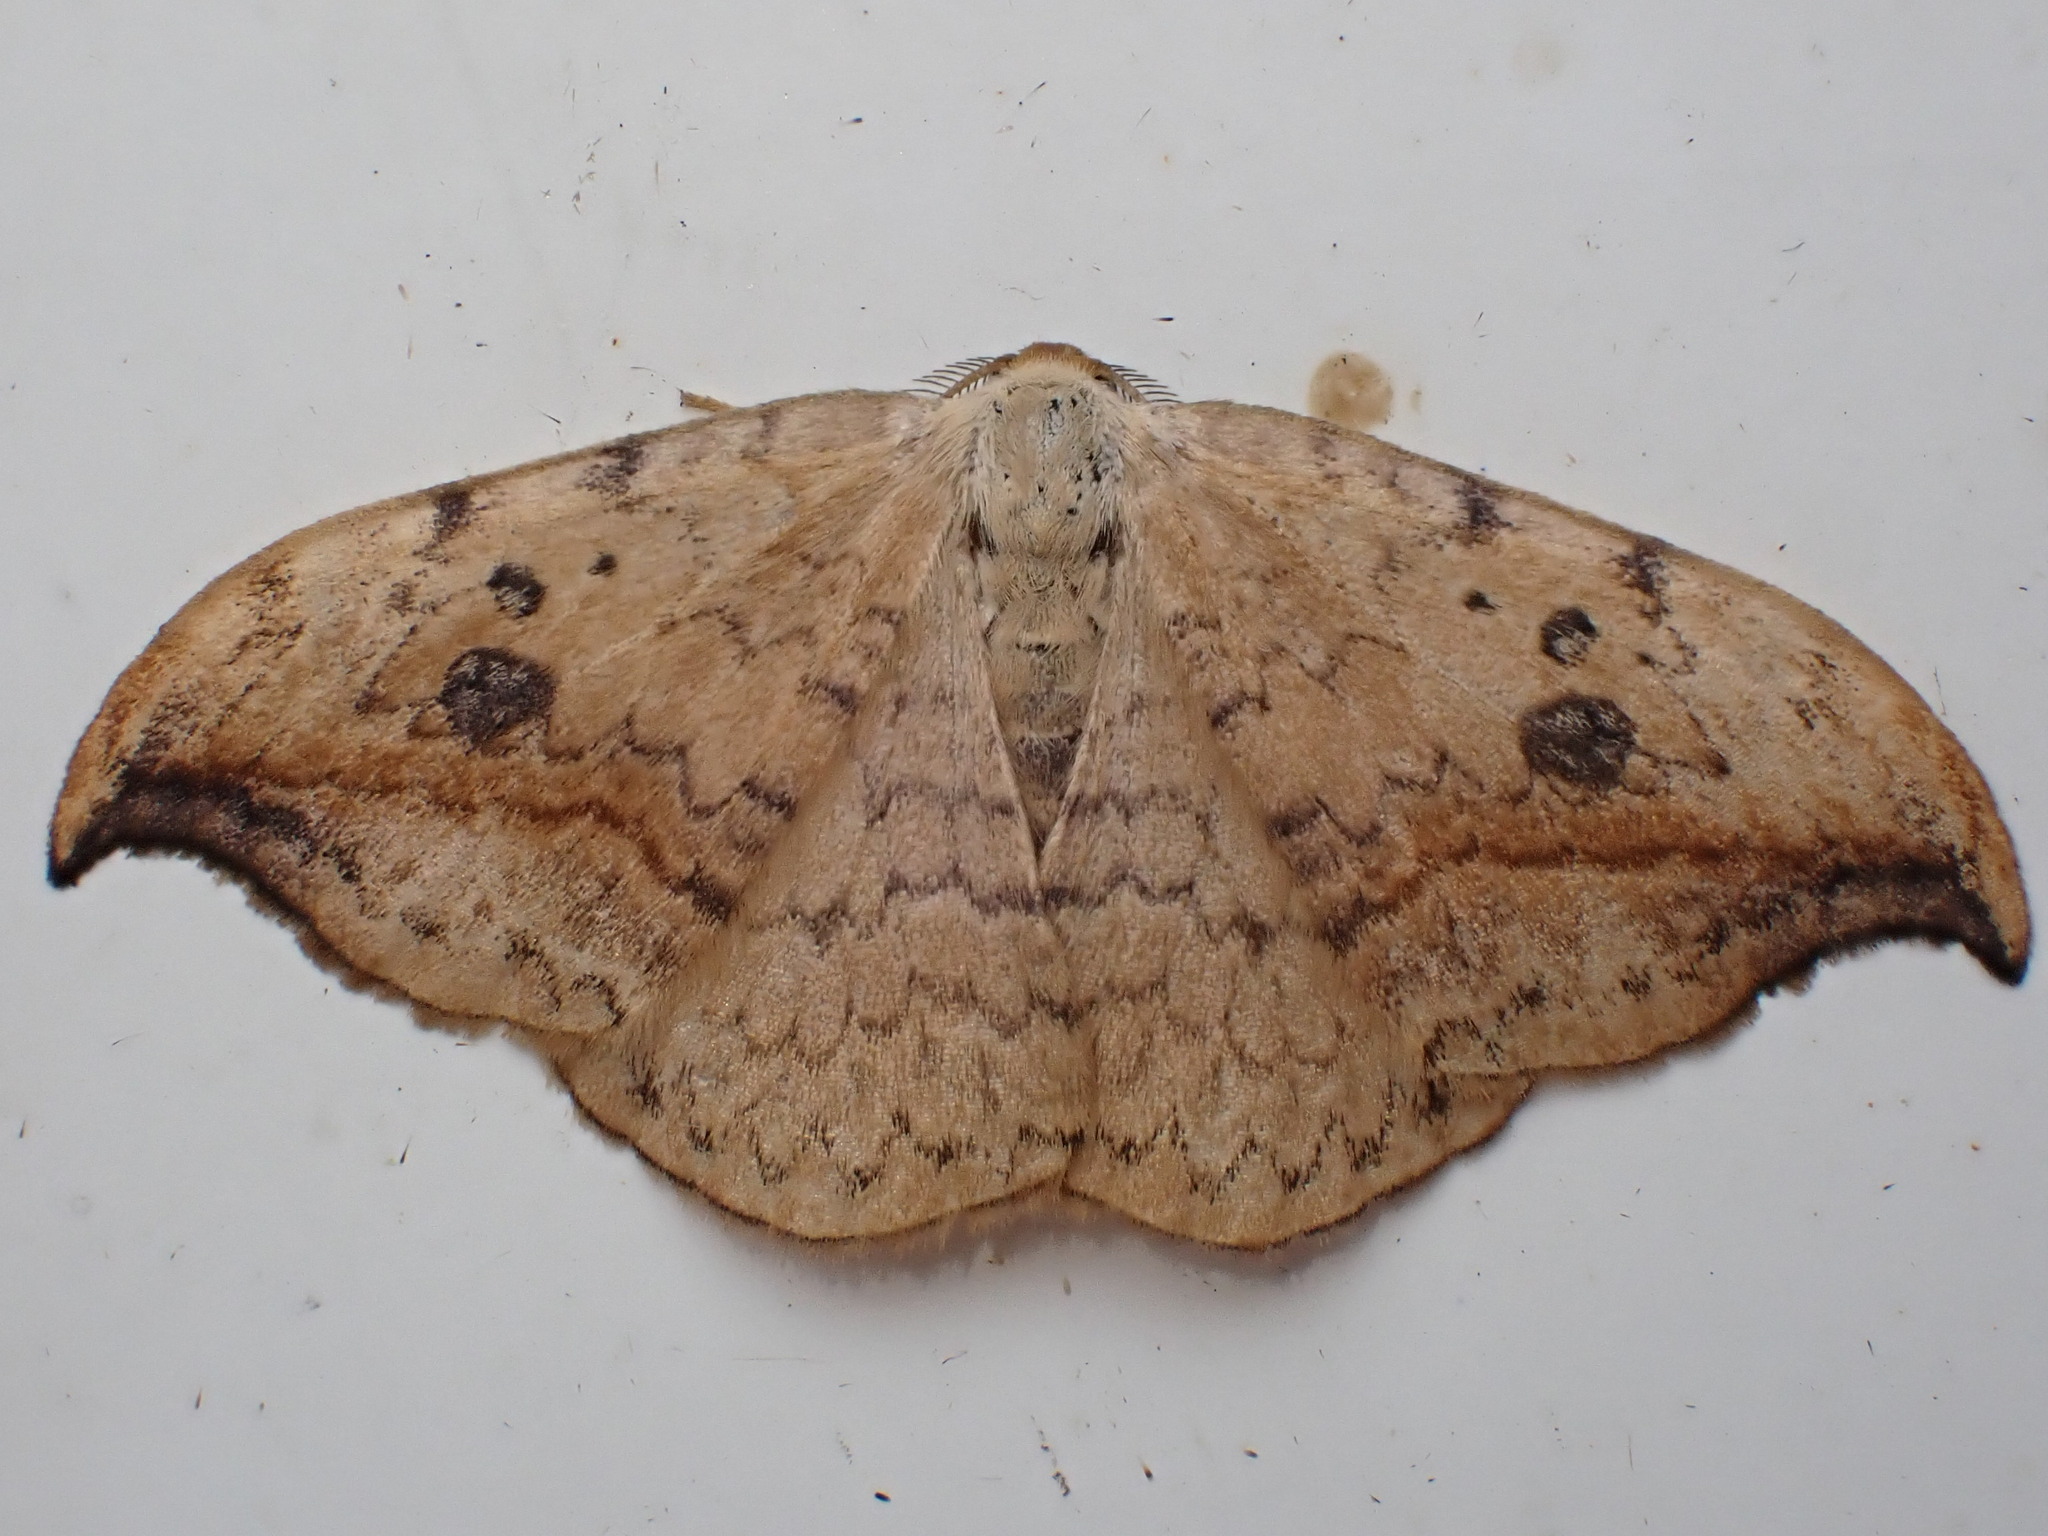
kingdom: Animalia
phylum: Arthropoda
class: Insecta
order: Lepidoptera
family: Drepanidae
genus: Drepana
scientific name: Drepana falcataria
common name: Pebble hook-tip
